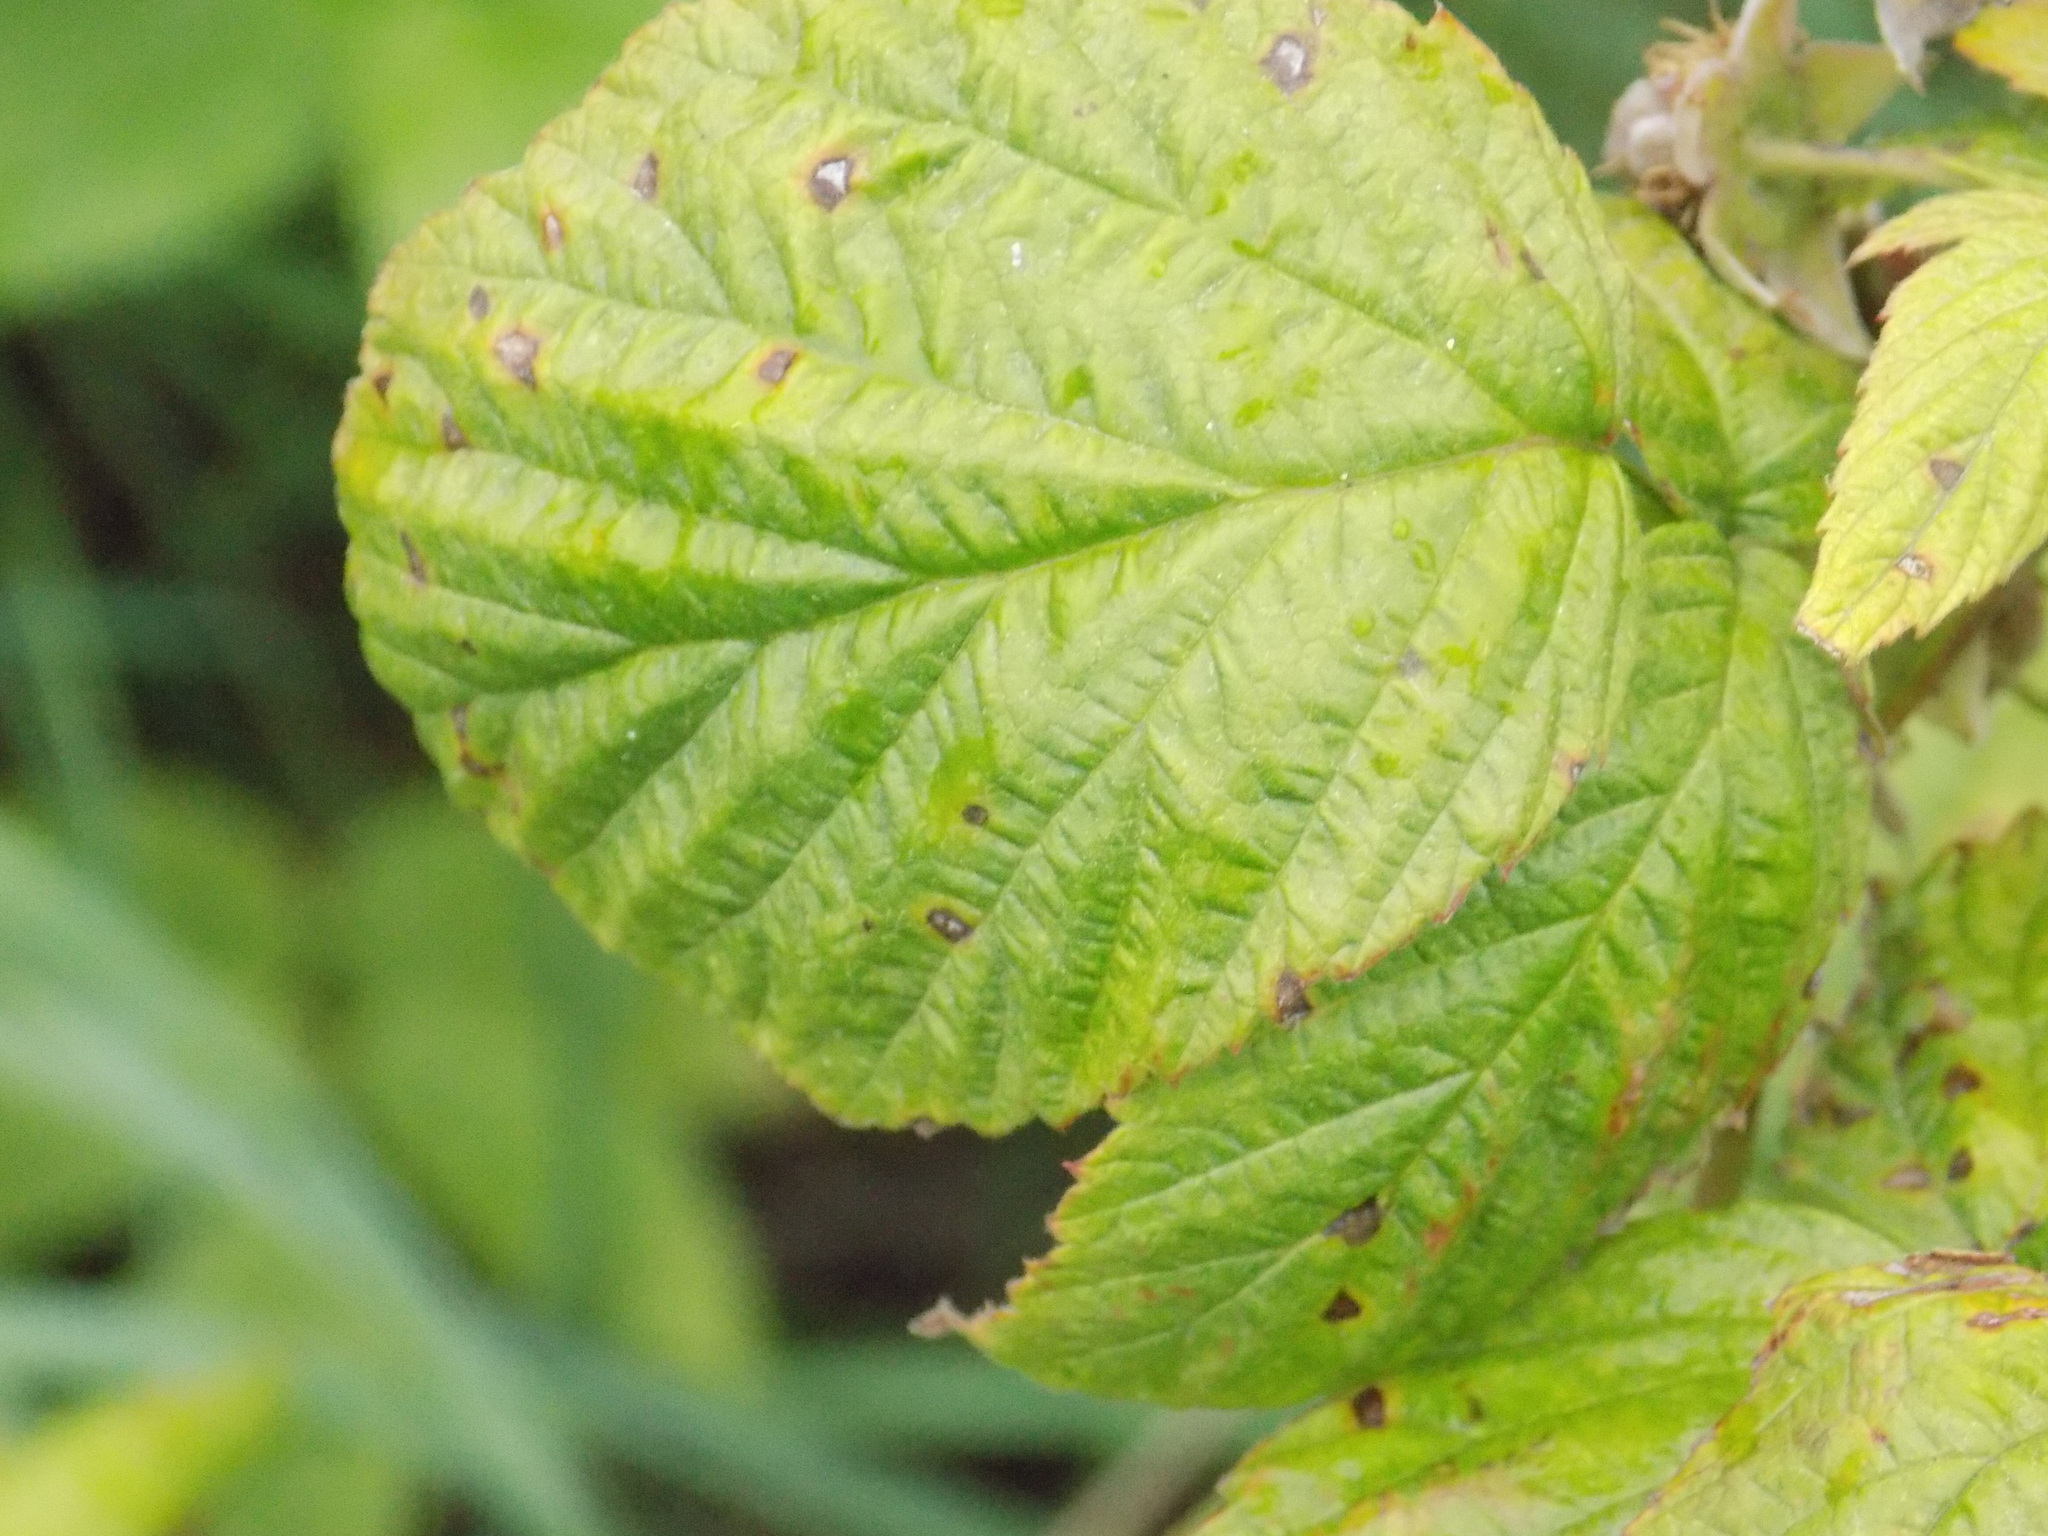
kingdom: Plantae
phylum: Tracheophyta
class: Magnoliopsida
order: Rosales
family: Rosaceae
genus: Rubus
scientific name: Rubus idaeus
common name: Raspberry
